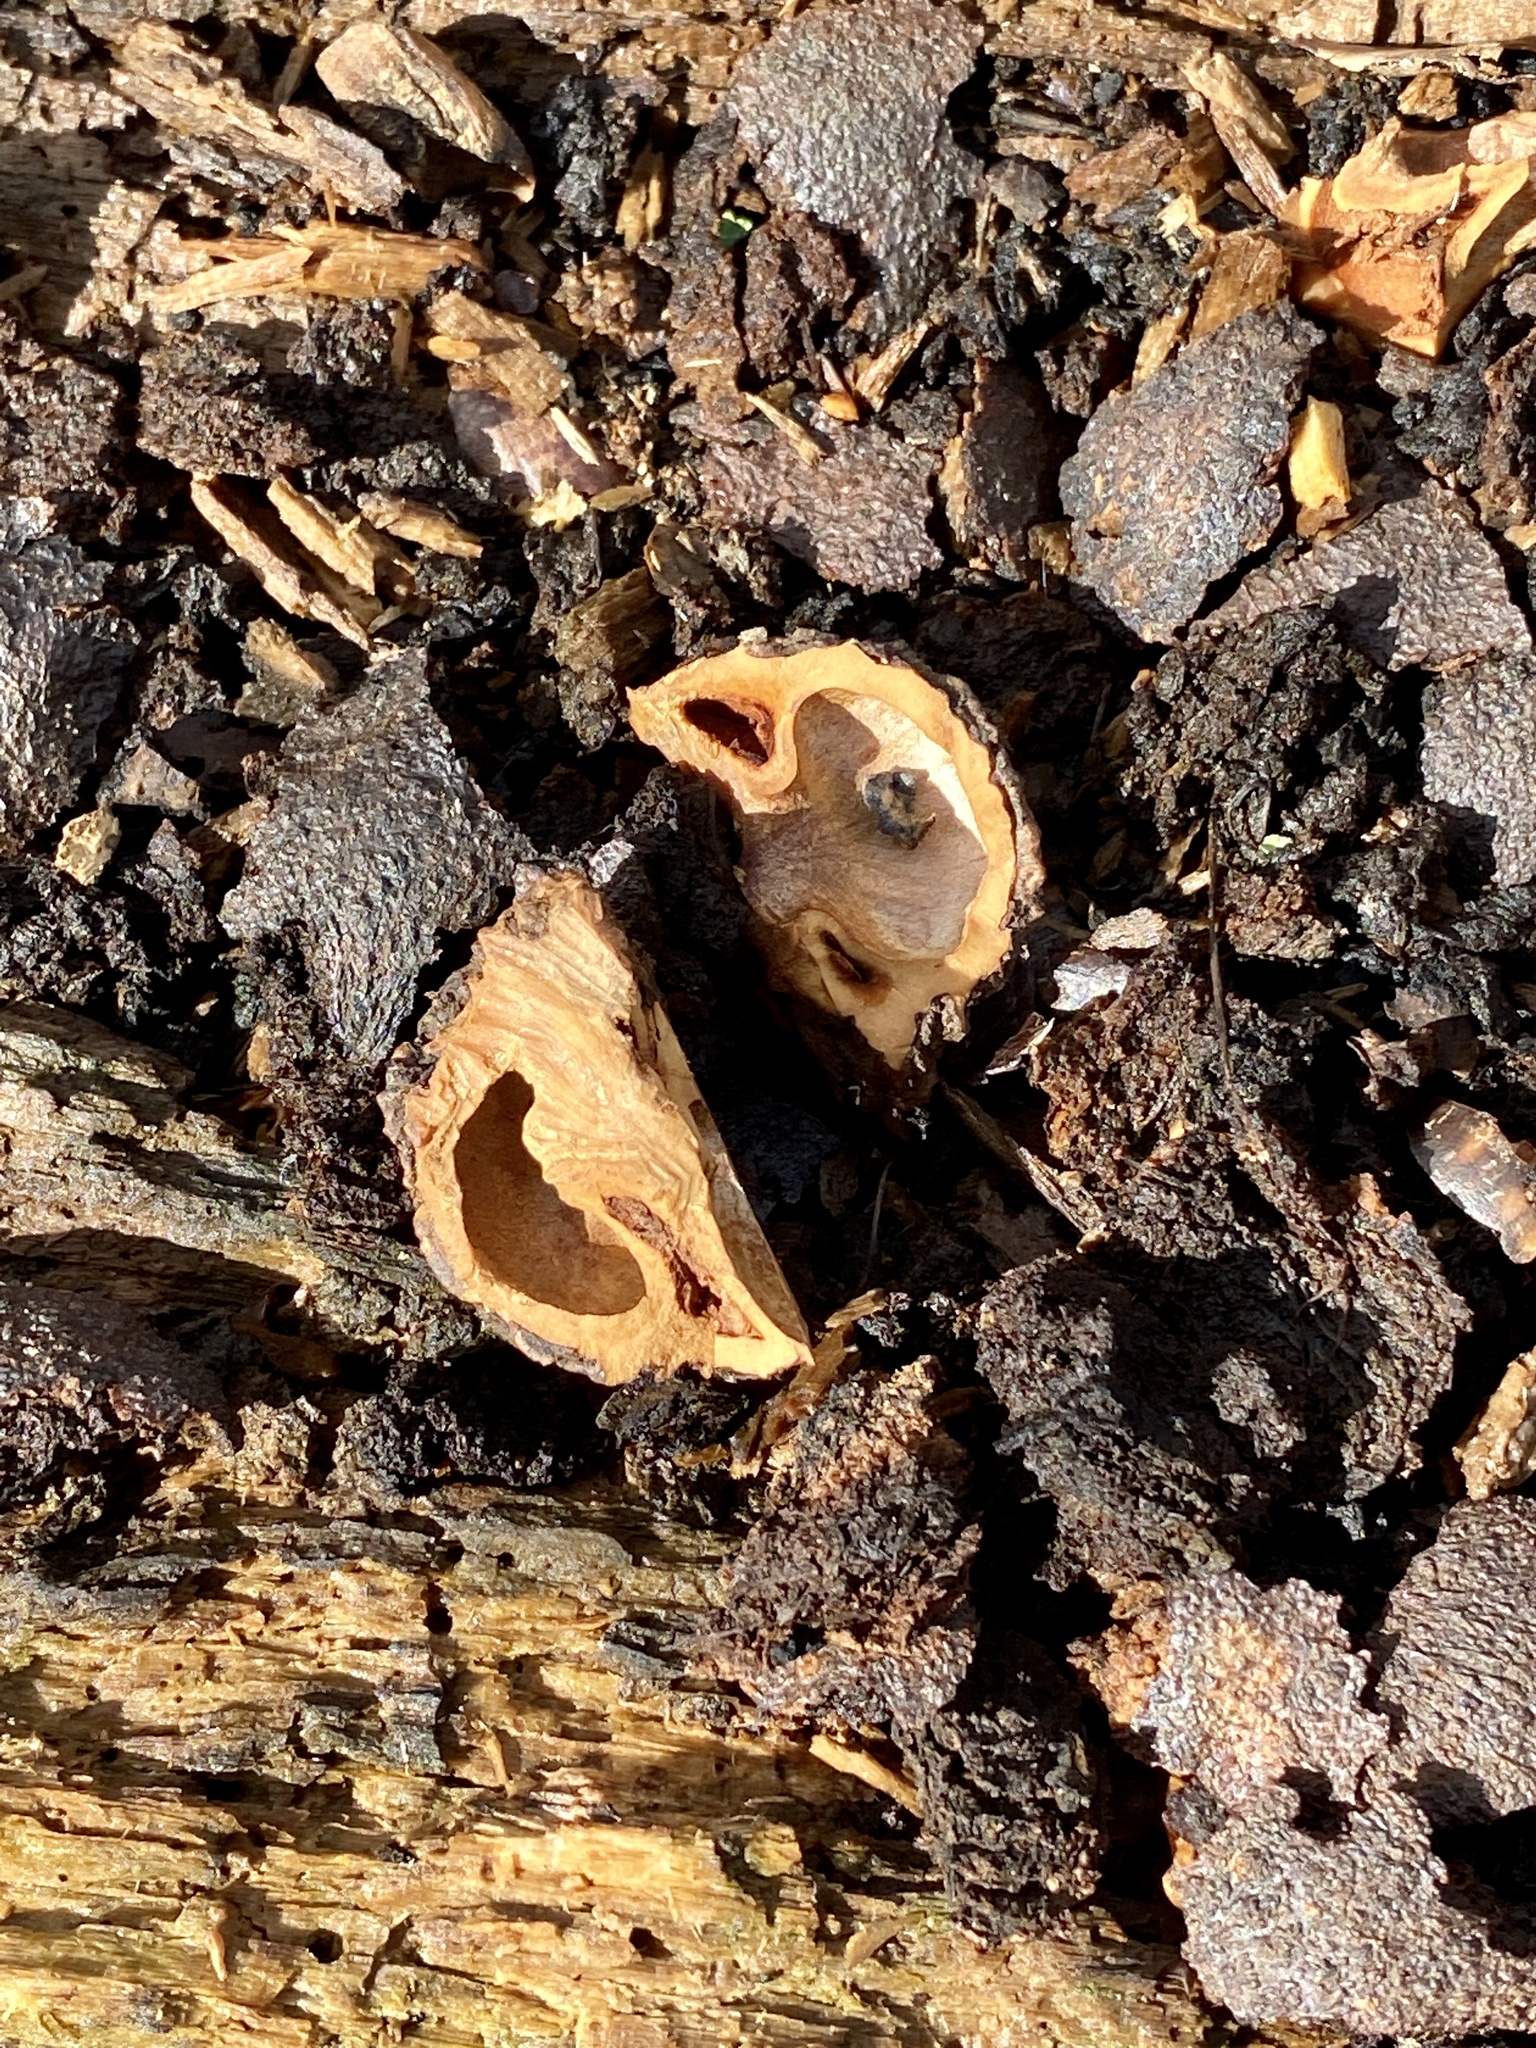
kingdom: Plantae
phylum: Tracheophyta
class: Magnoliopsida
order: Fagales
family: Juglandaceae
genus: Juglans
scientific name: Juglans nigra
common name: Black walnut
